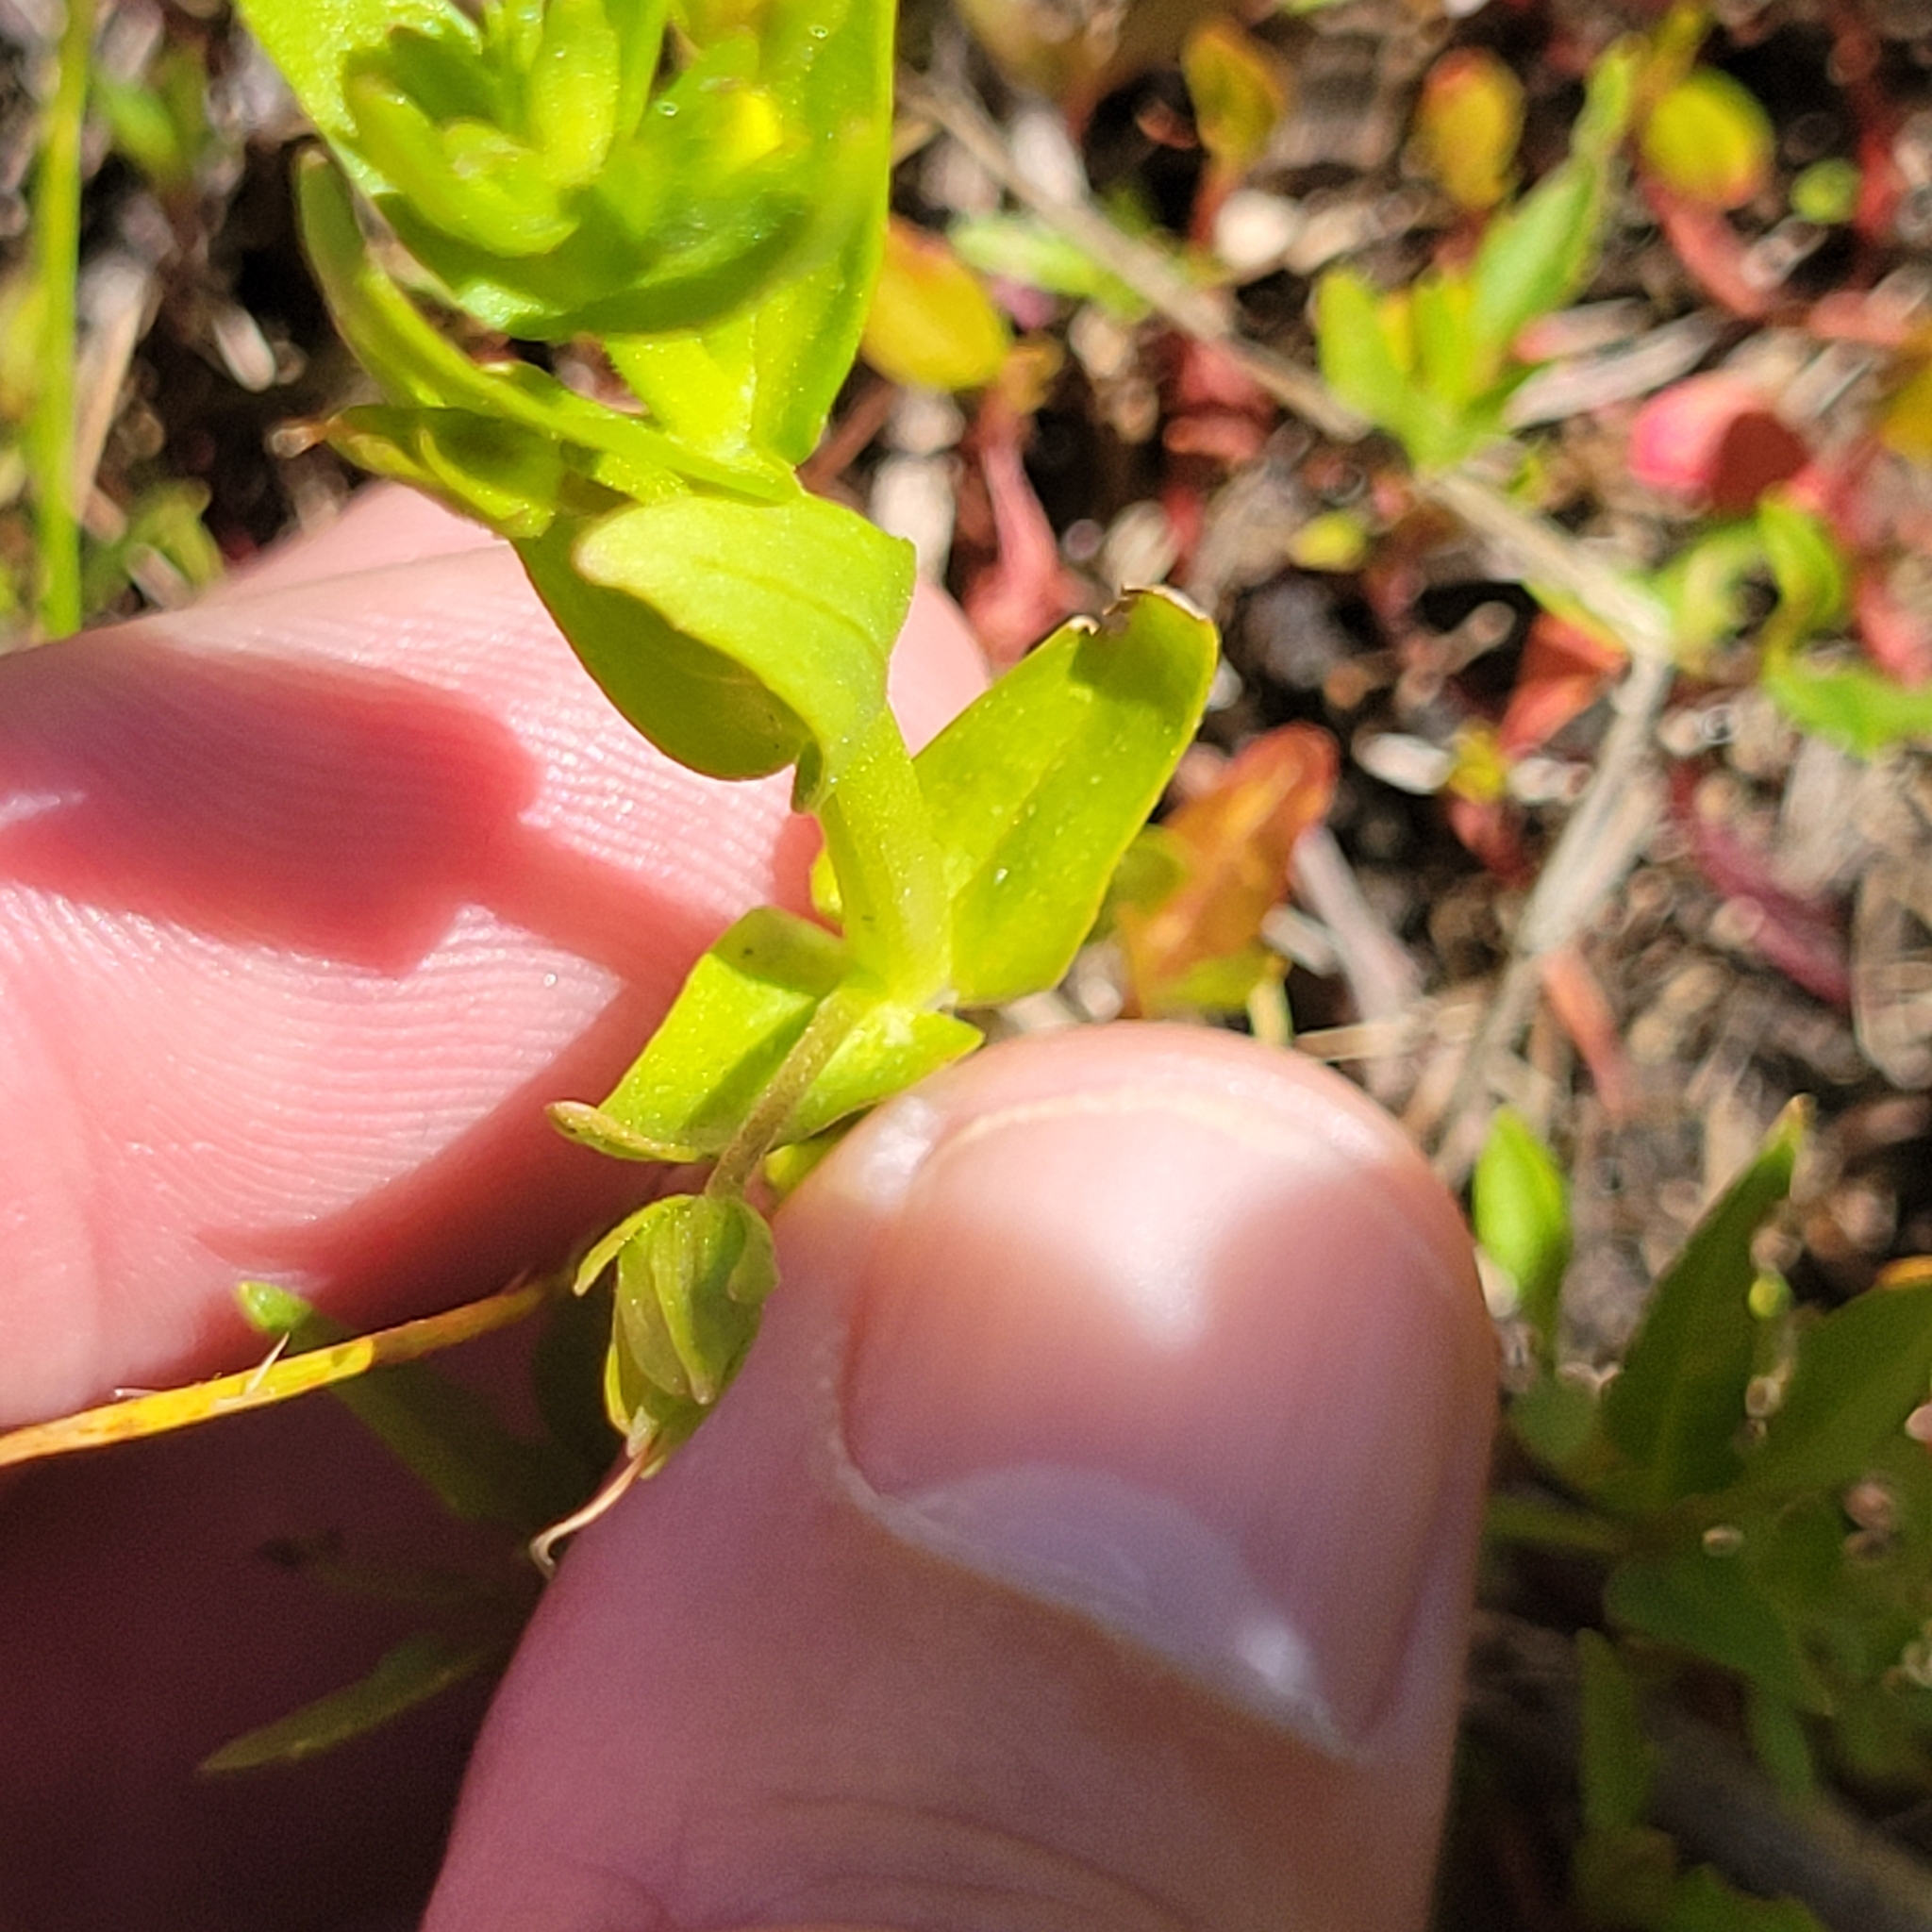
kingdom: Plantae
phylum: Tracheophyta
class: Magnoliopsida
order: Lamiales
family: Plantaginaceae
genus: Gratiola
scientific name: Gratiola lutea
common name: Golden hedge-hyssop
